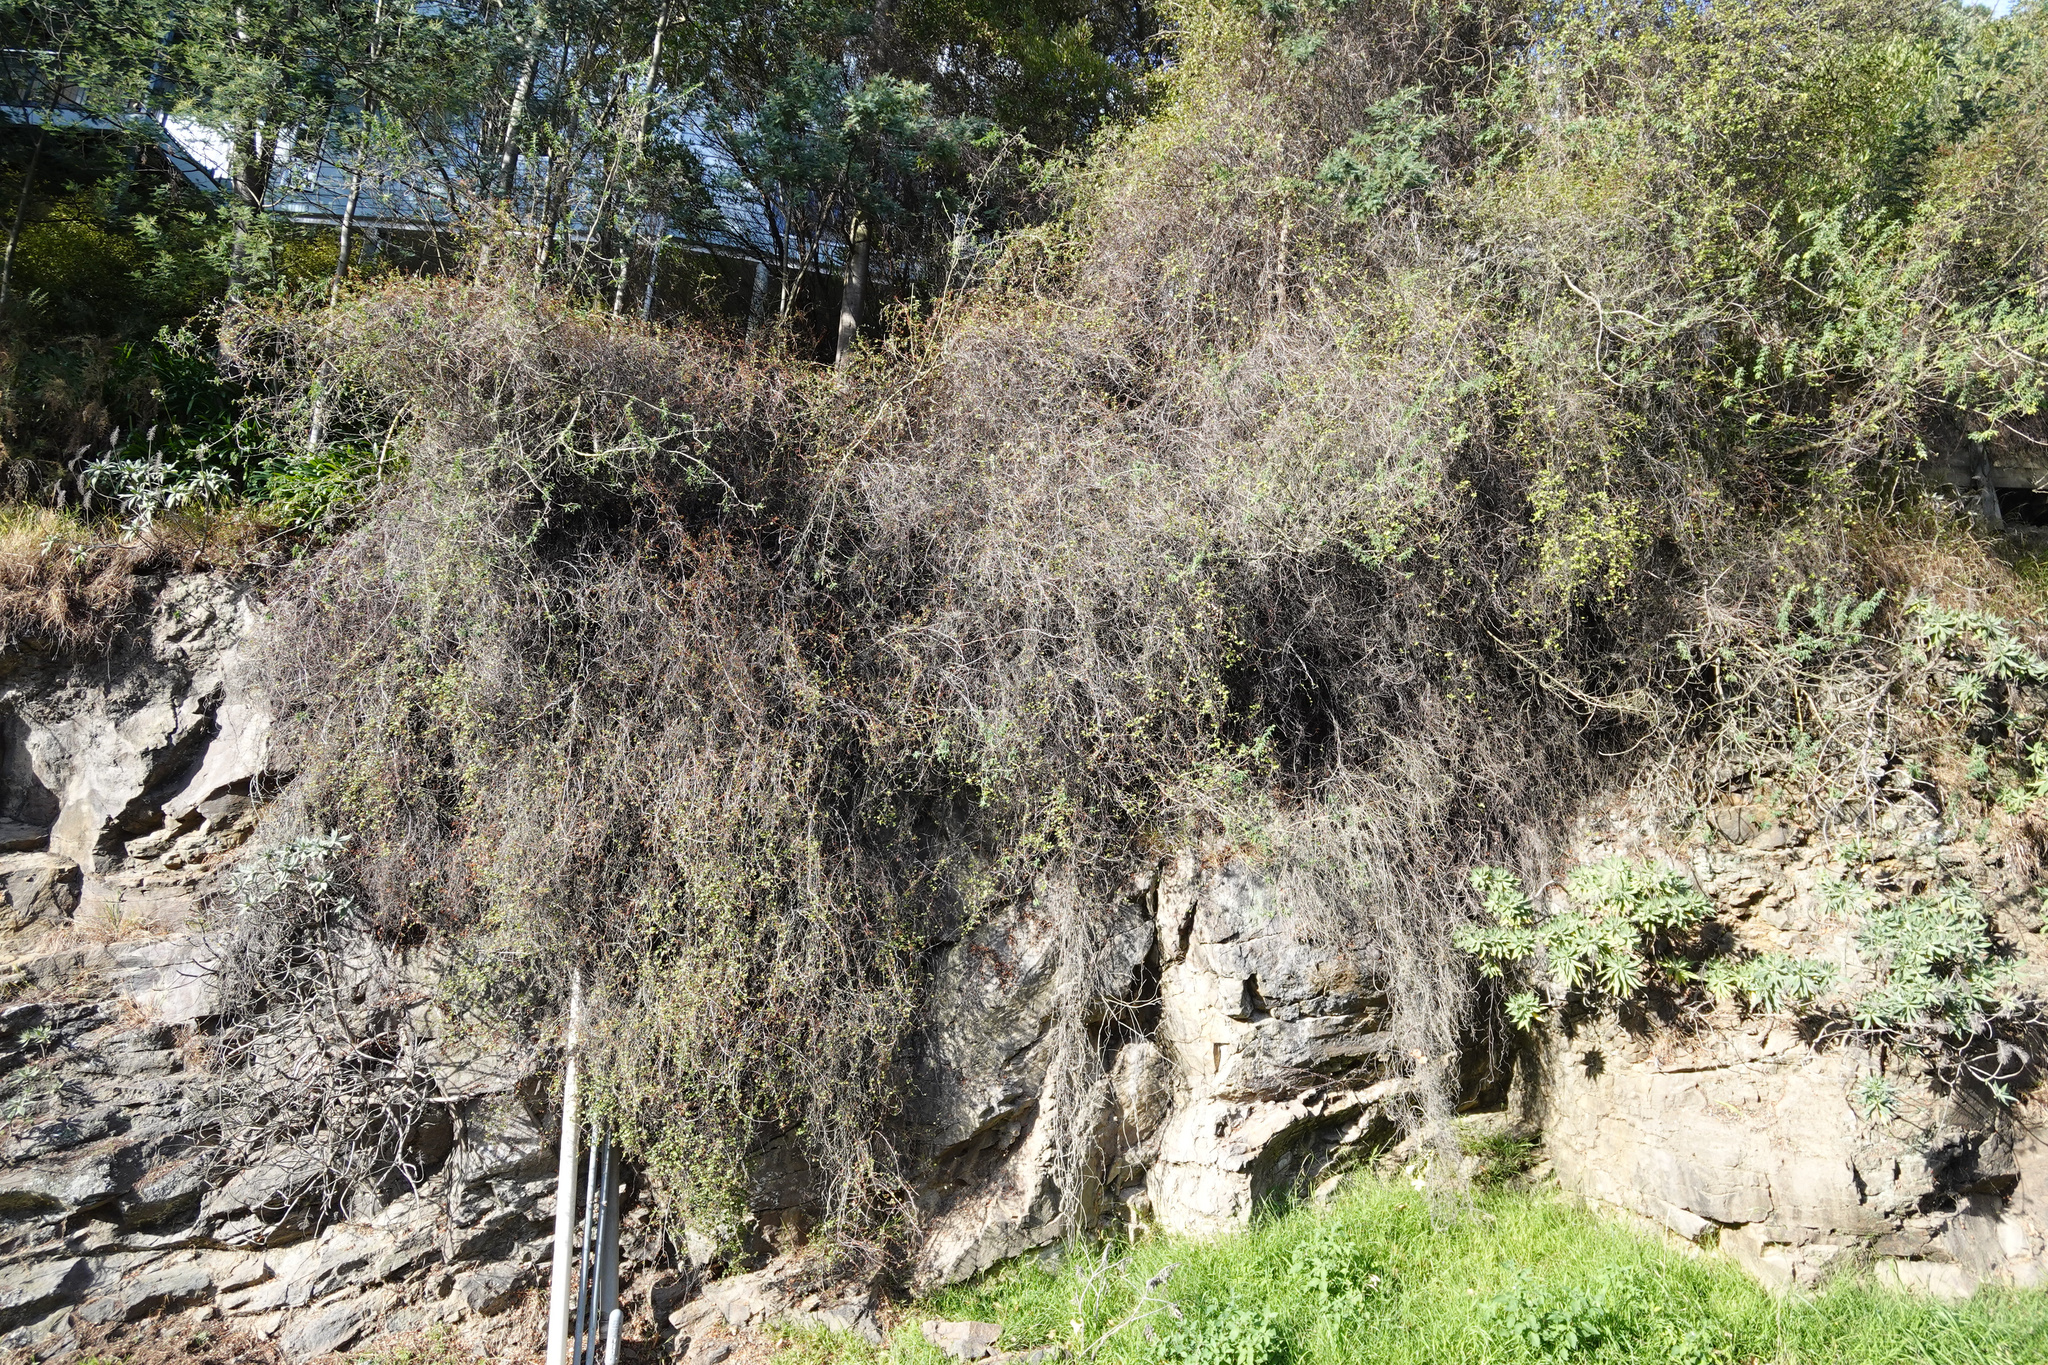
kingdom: Plantae
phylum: Tracheophyta
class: Magnoliopsida
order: Caryophyllales
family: Polygonaceae
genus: Muehlenbeckia
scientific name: Muehlenbeckia complexa
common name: Wireplant
